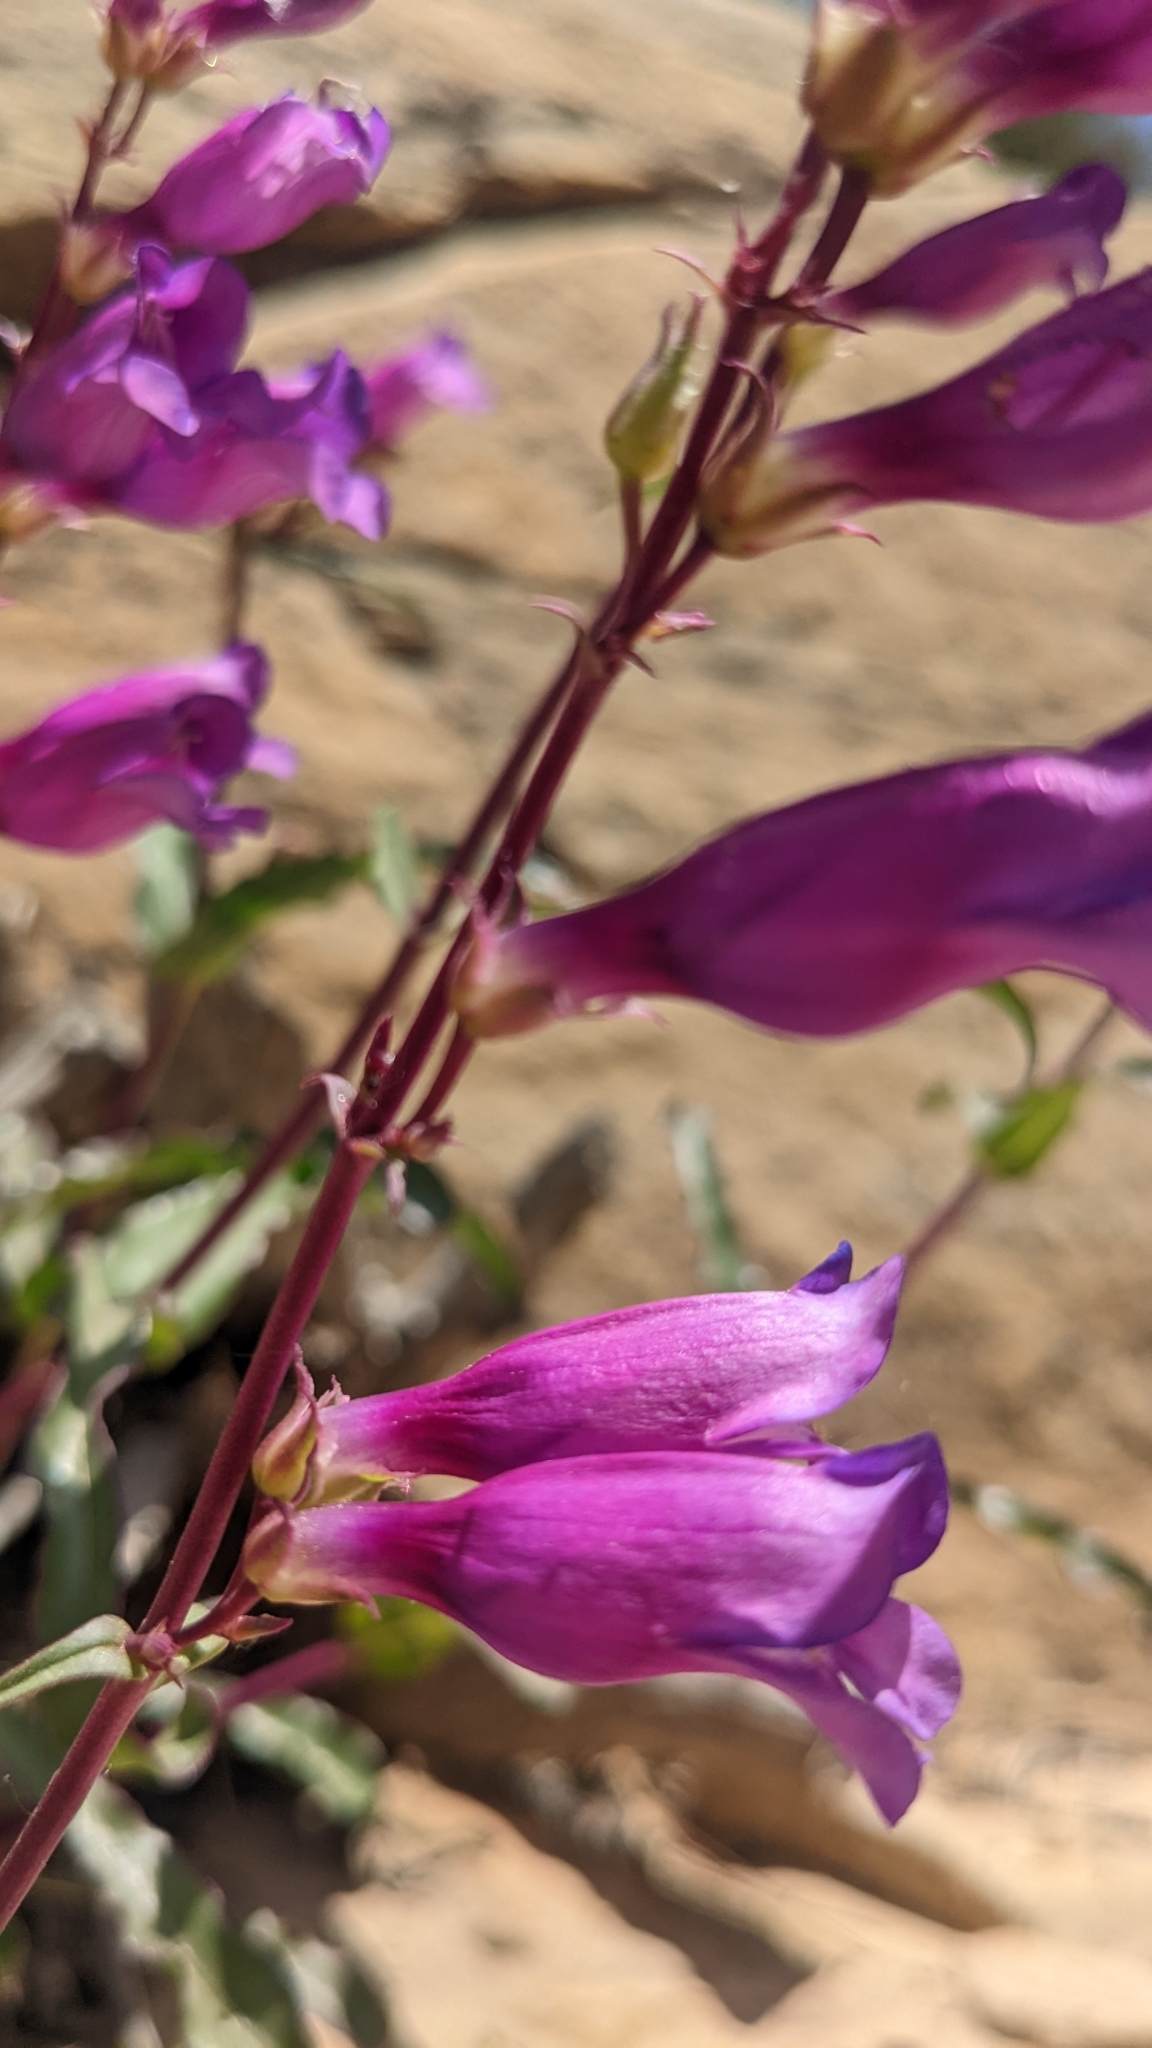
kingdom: Plantae
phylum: Tracheophyta
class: Magnoliopsida
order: Lamiales
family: Plantaginaceae
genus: Penstemon
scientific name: Penstemon jonesii
